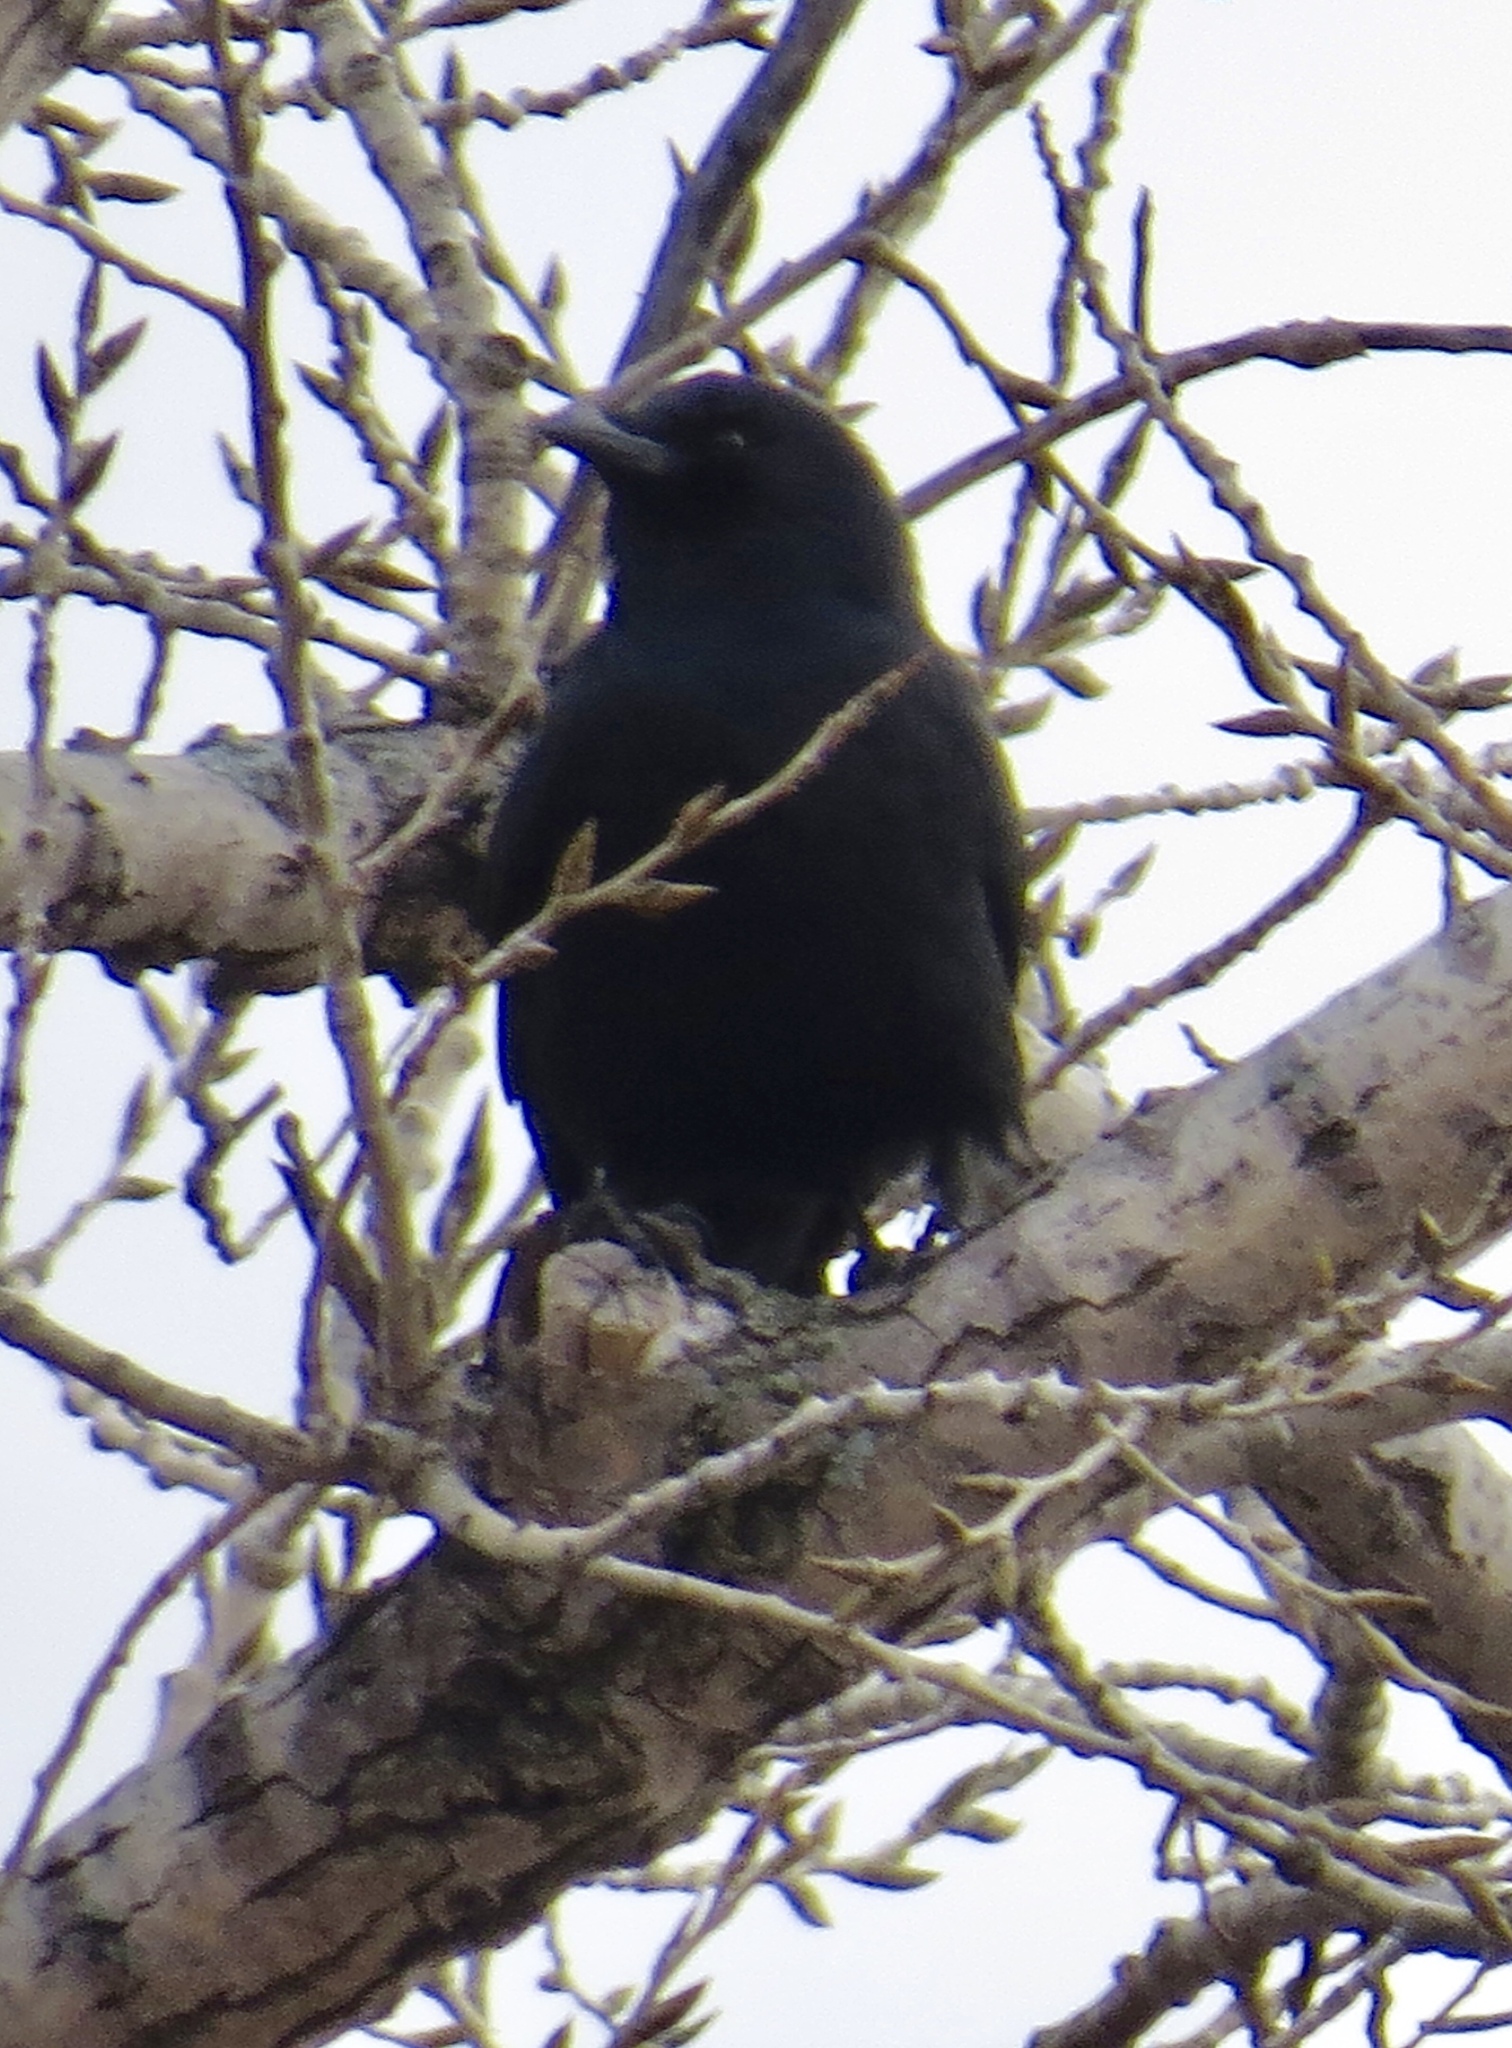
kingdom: Animalia
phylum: Chordata
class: Aves
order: Passeriformes
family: Corvidae
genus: Corvus
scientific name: Corvus brachyrhynchos
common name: American crow
